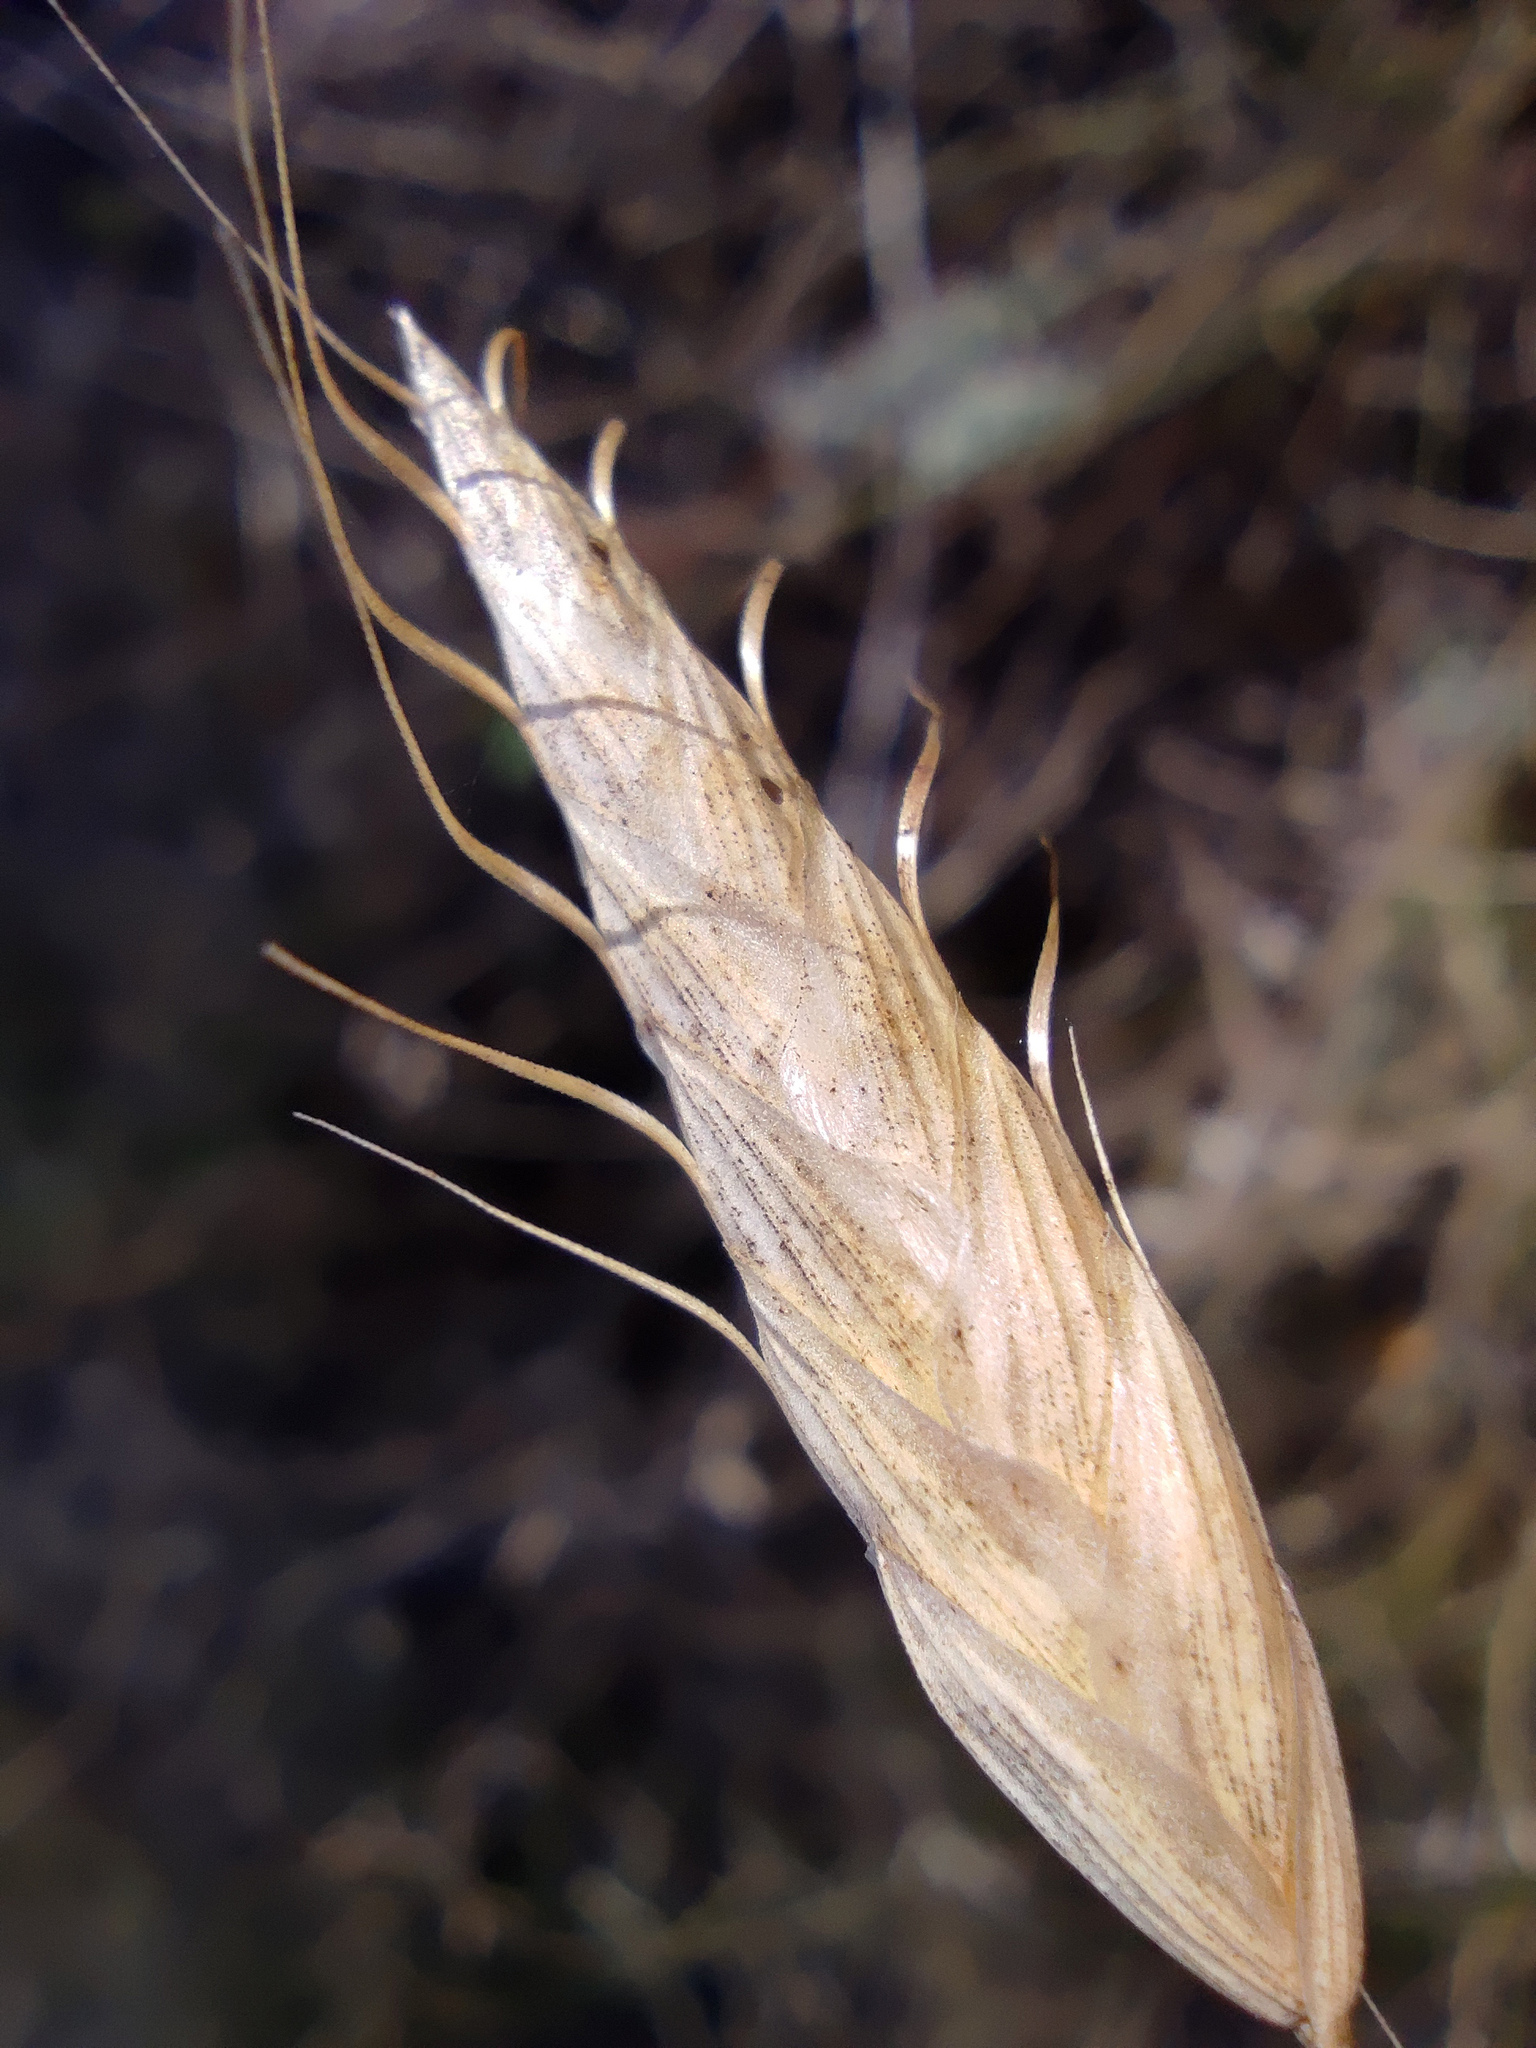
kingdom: Plantae
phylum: Tracheophyta
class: Liliopsida
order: Poales
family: Poaceae
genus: Bromus
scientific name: Bromus squarrosus
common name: Corn brome
